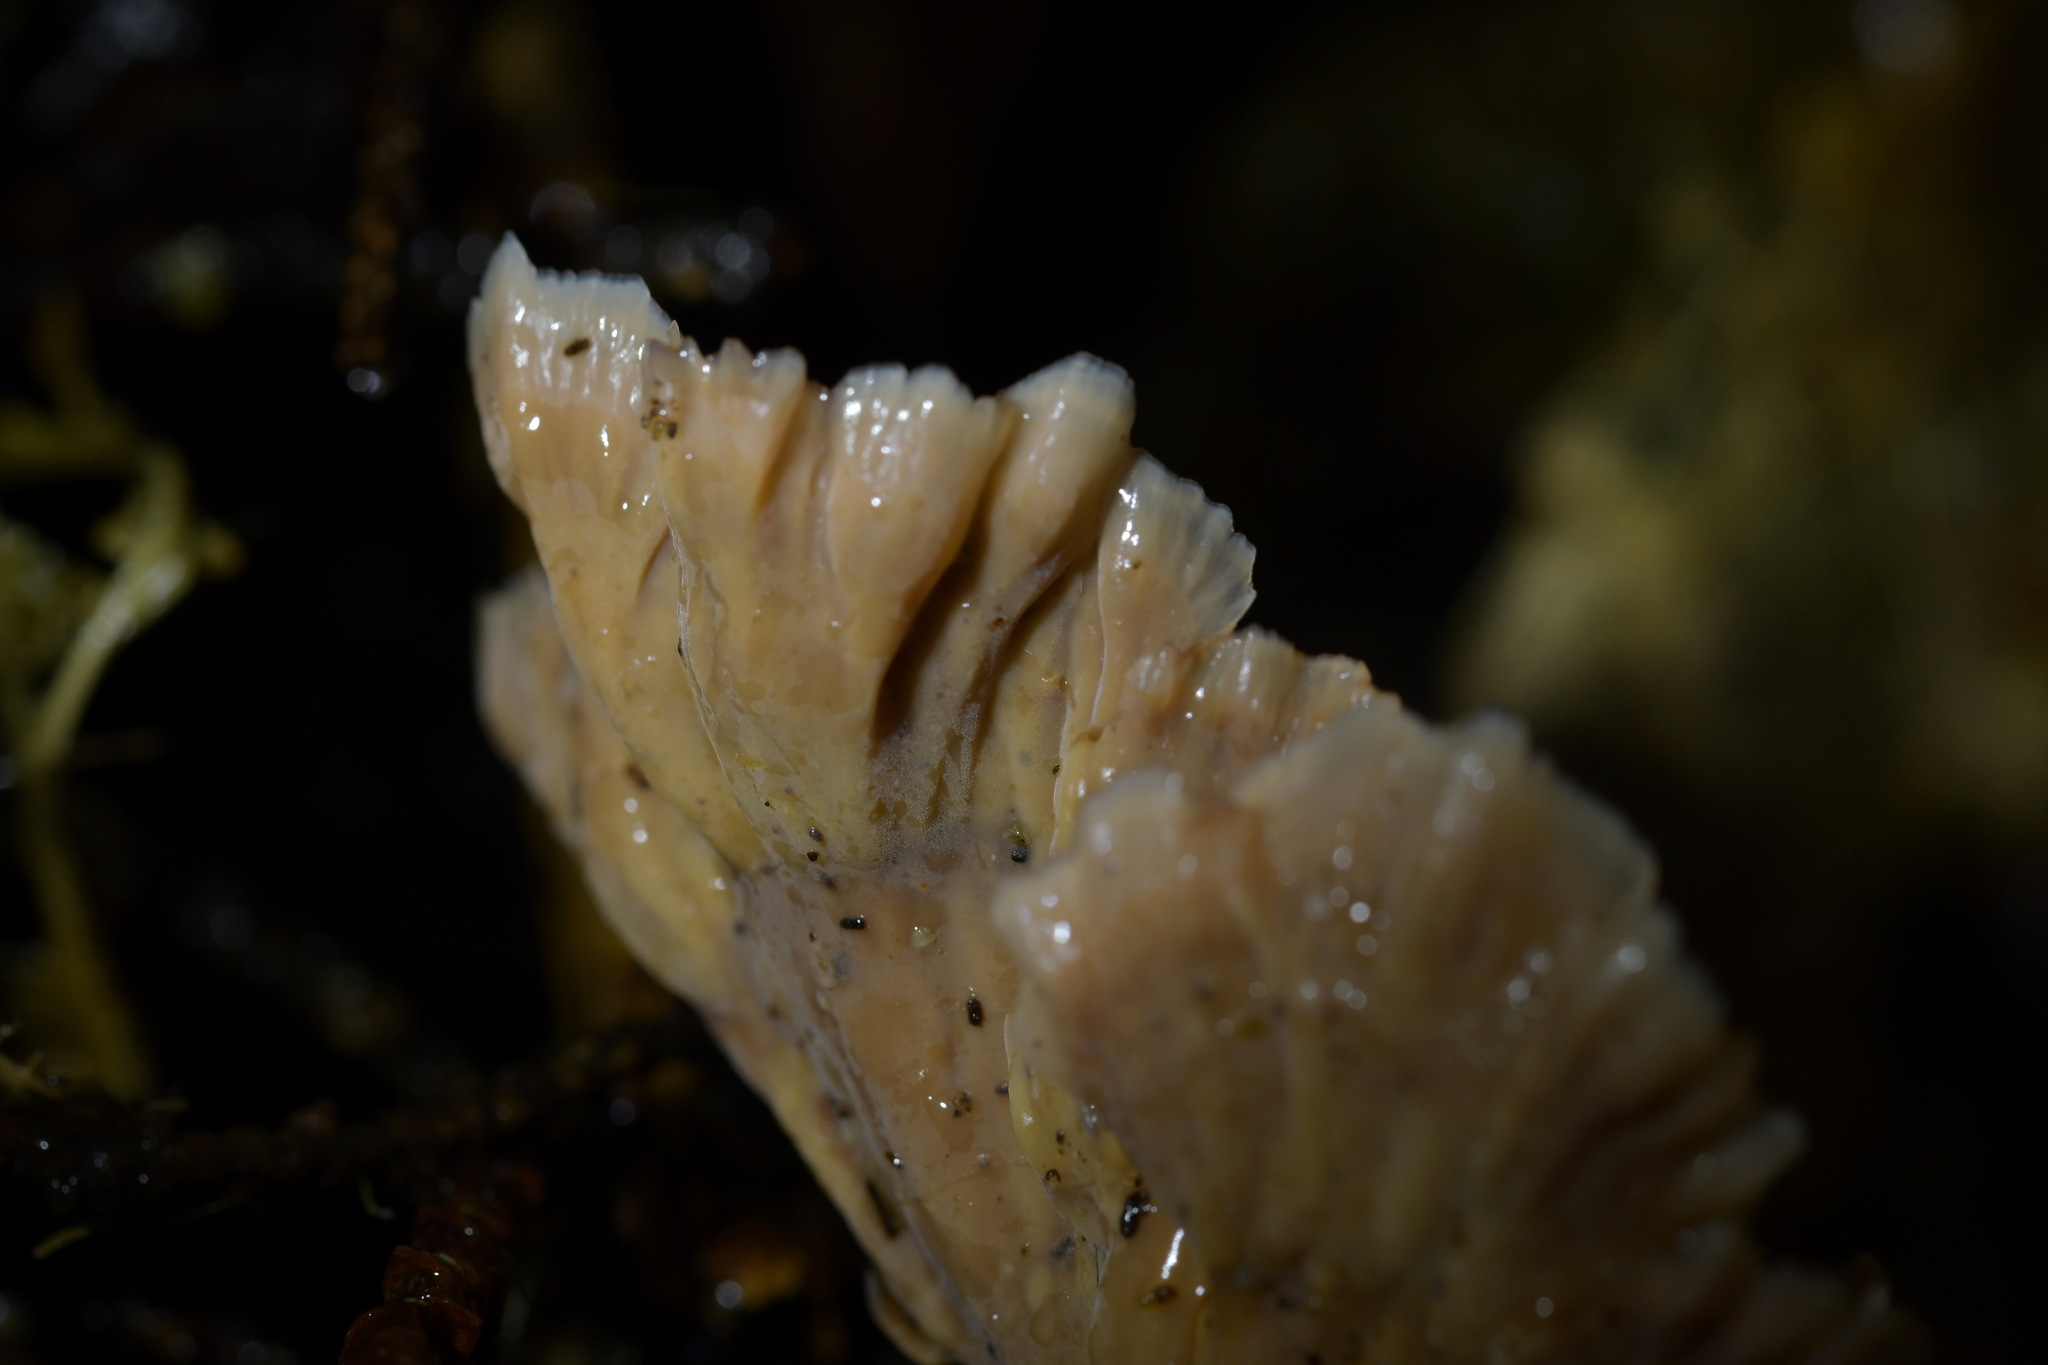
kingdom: Fungi
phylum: Basidiomycota
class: Agaricomycetes
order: Polyporales
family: Podoscyphaceae
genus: Podoscypha
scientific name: Podoscypha petalodes
